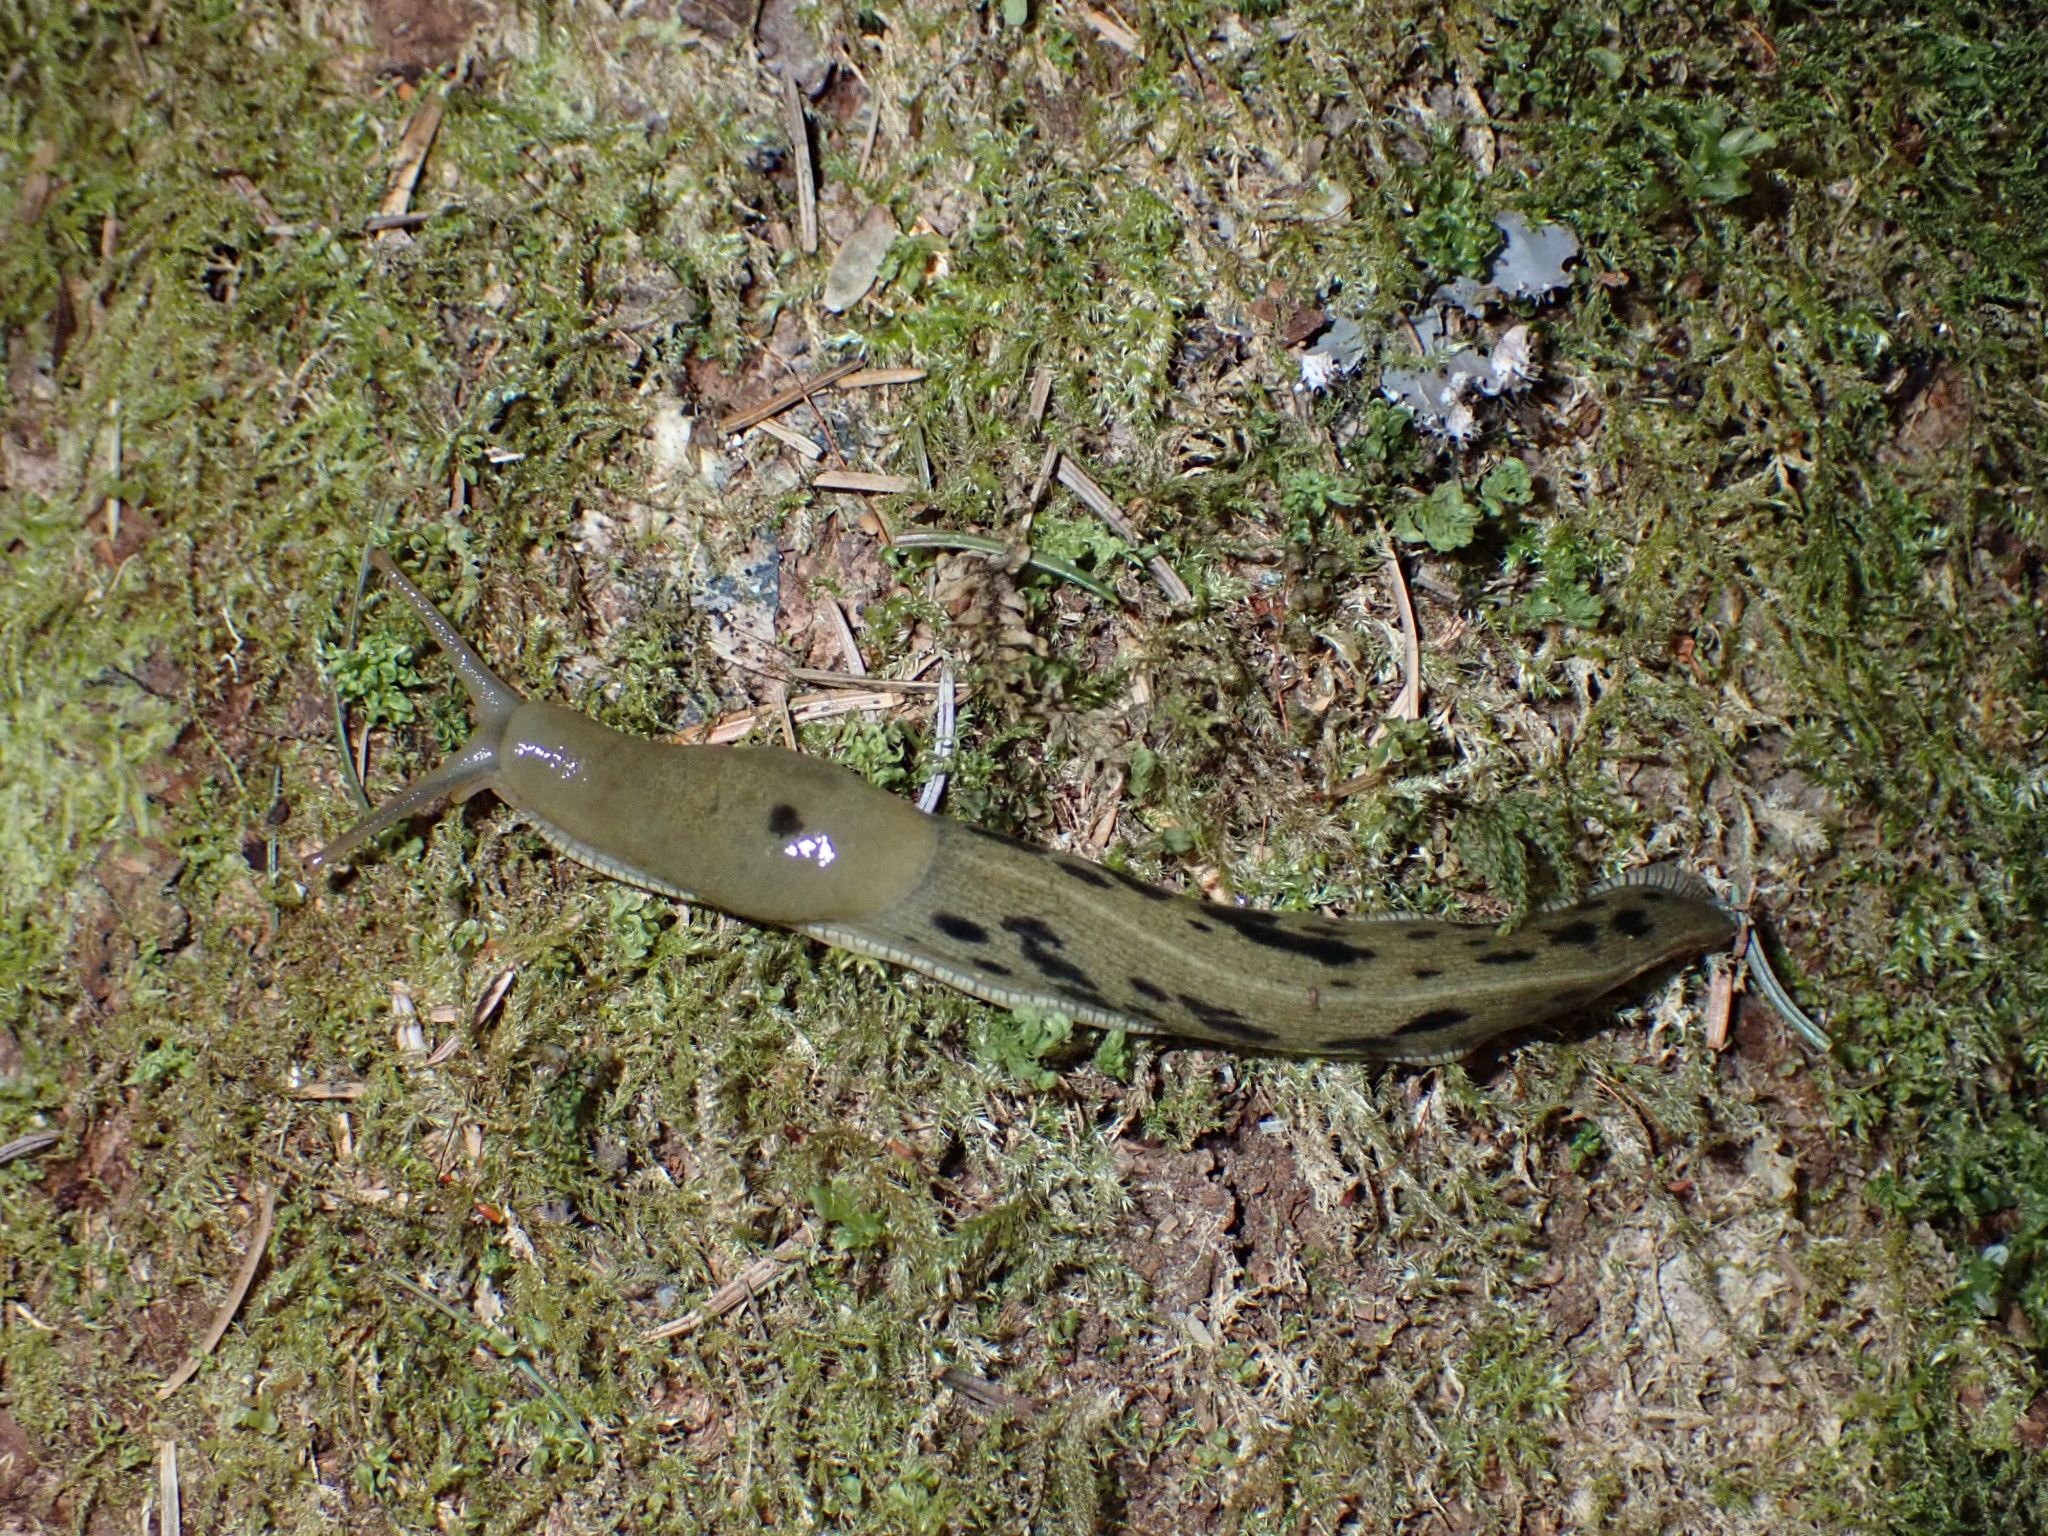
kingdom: Animalia
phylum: Mollusca
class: Gastropoda
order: Stylommatophora
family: Ariolimacidae
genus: Ariolimax
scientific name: Ariolimax columbianus
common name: Pacific banana slug
